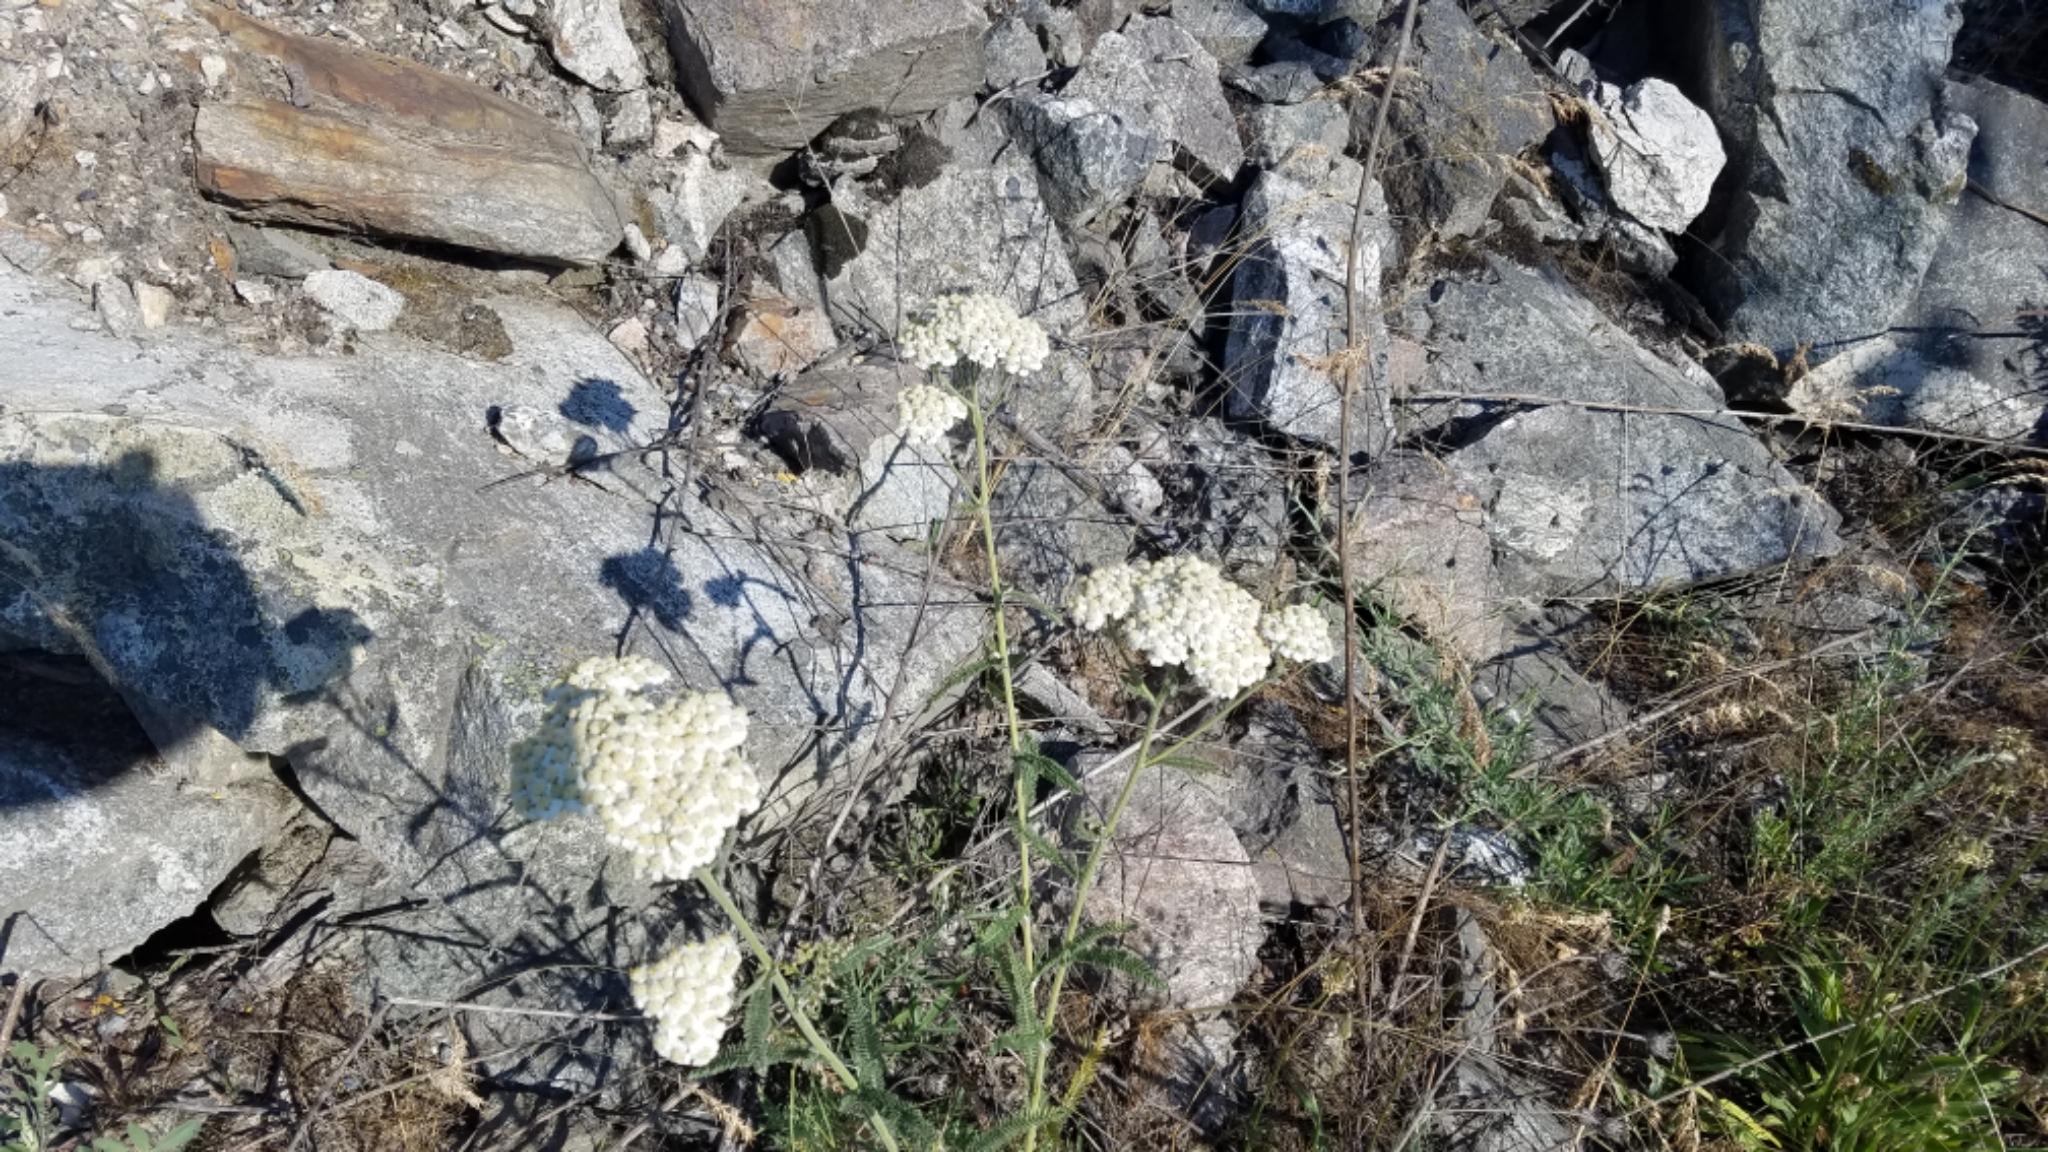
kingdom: Plantae
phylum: Tracheophyta
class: Magnoliopsida
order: Asterales
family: Asteraceae
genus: Achillea
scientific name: Achillea millefolium
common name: Yarrow
